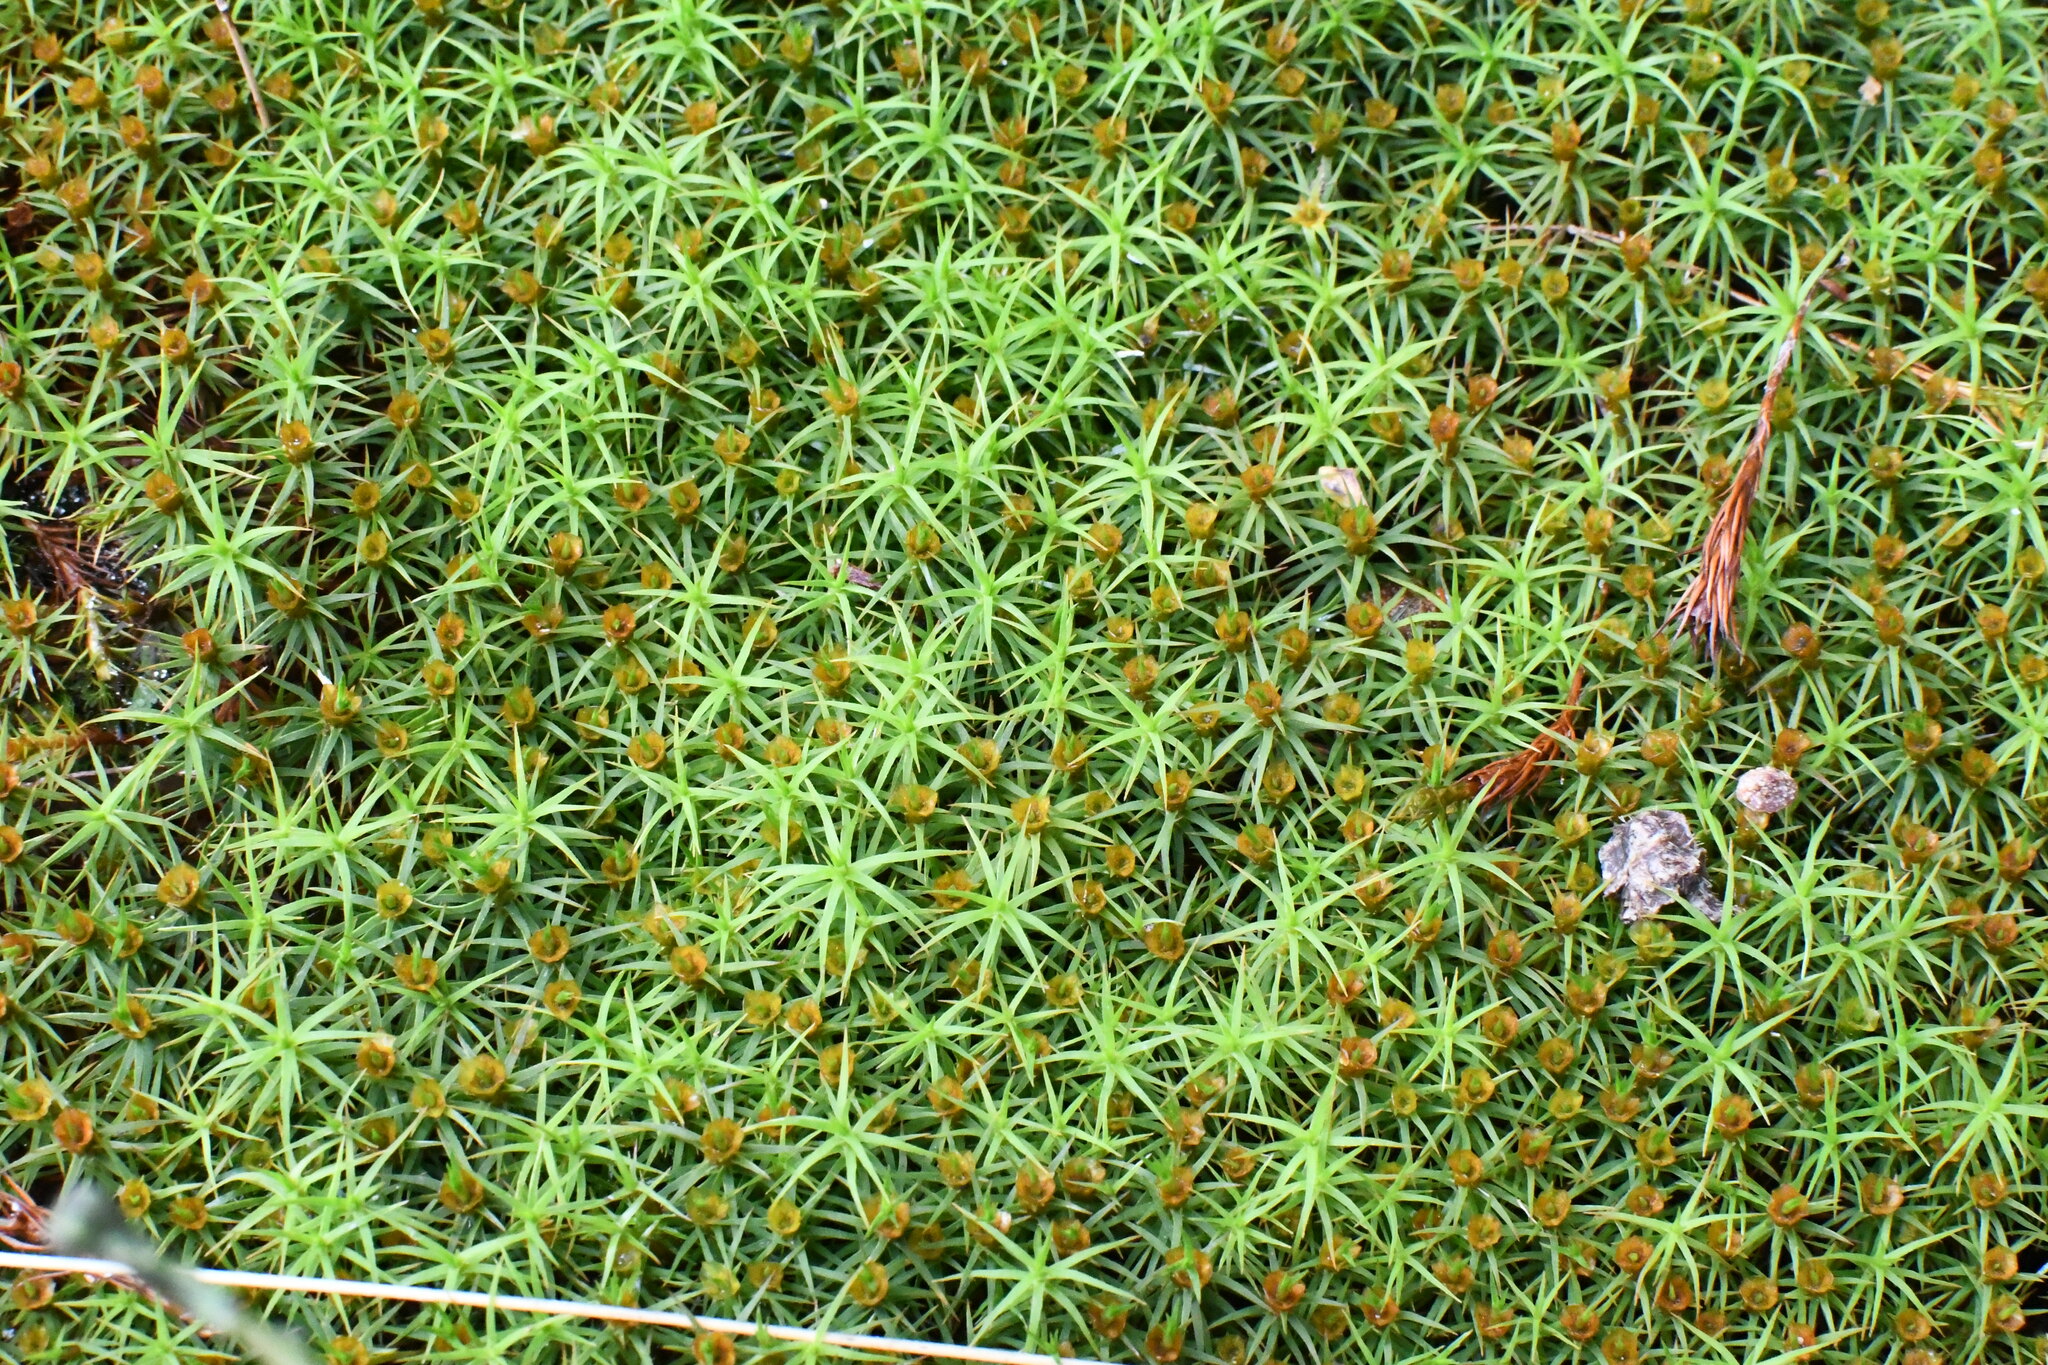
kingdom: Plantae
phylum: Bryophyta
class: Polytrichopsida
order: Polytrichales
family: Polytrichaceae
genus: Polytrichum
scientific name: Polytrichum commune
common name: Common haircap
